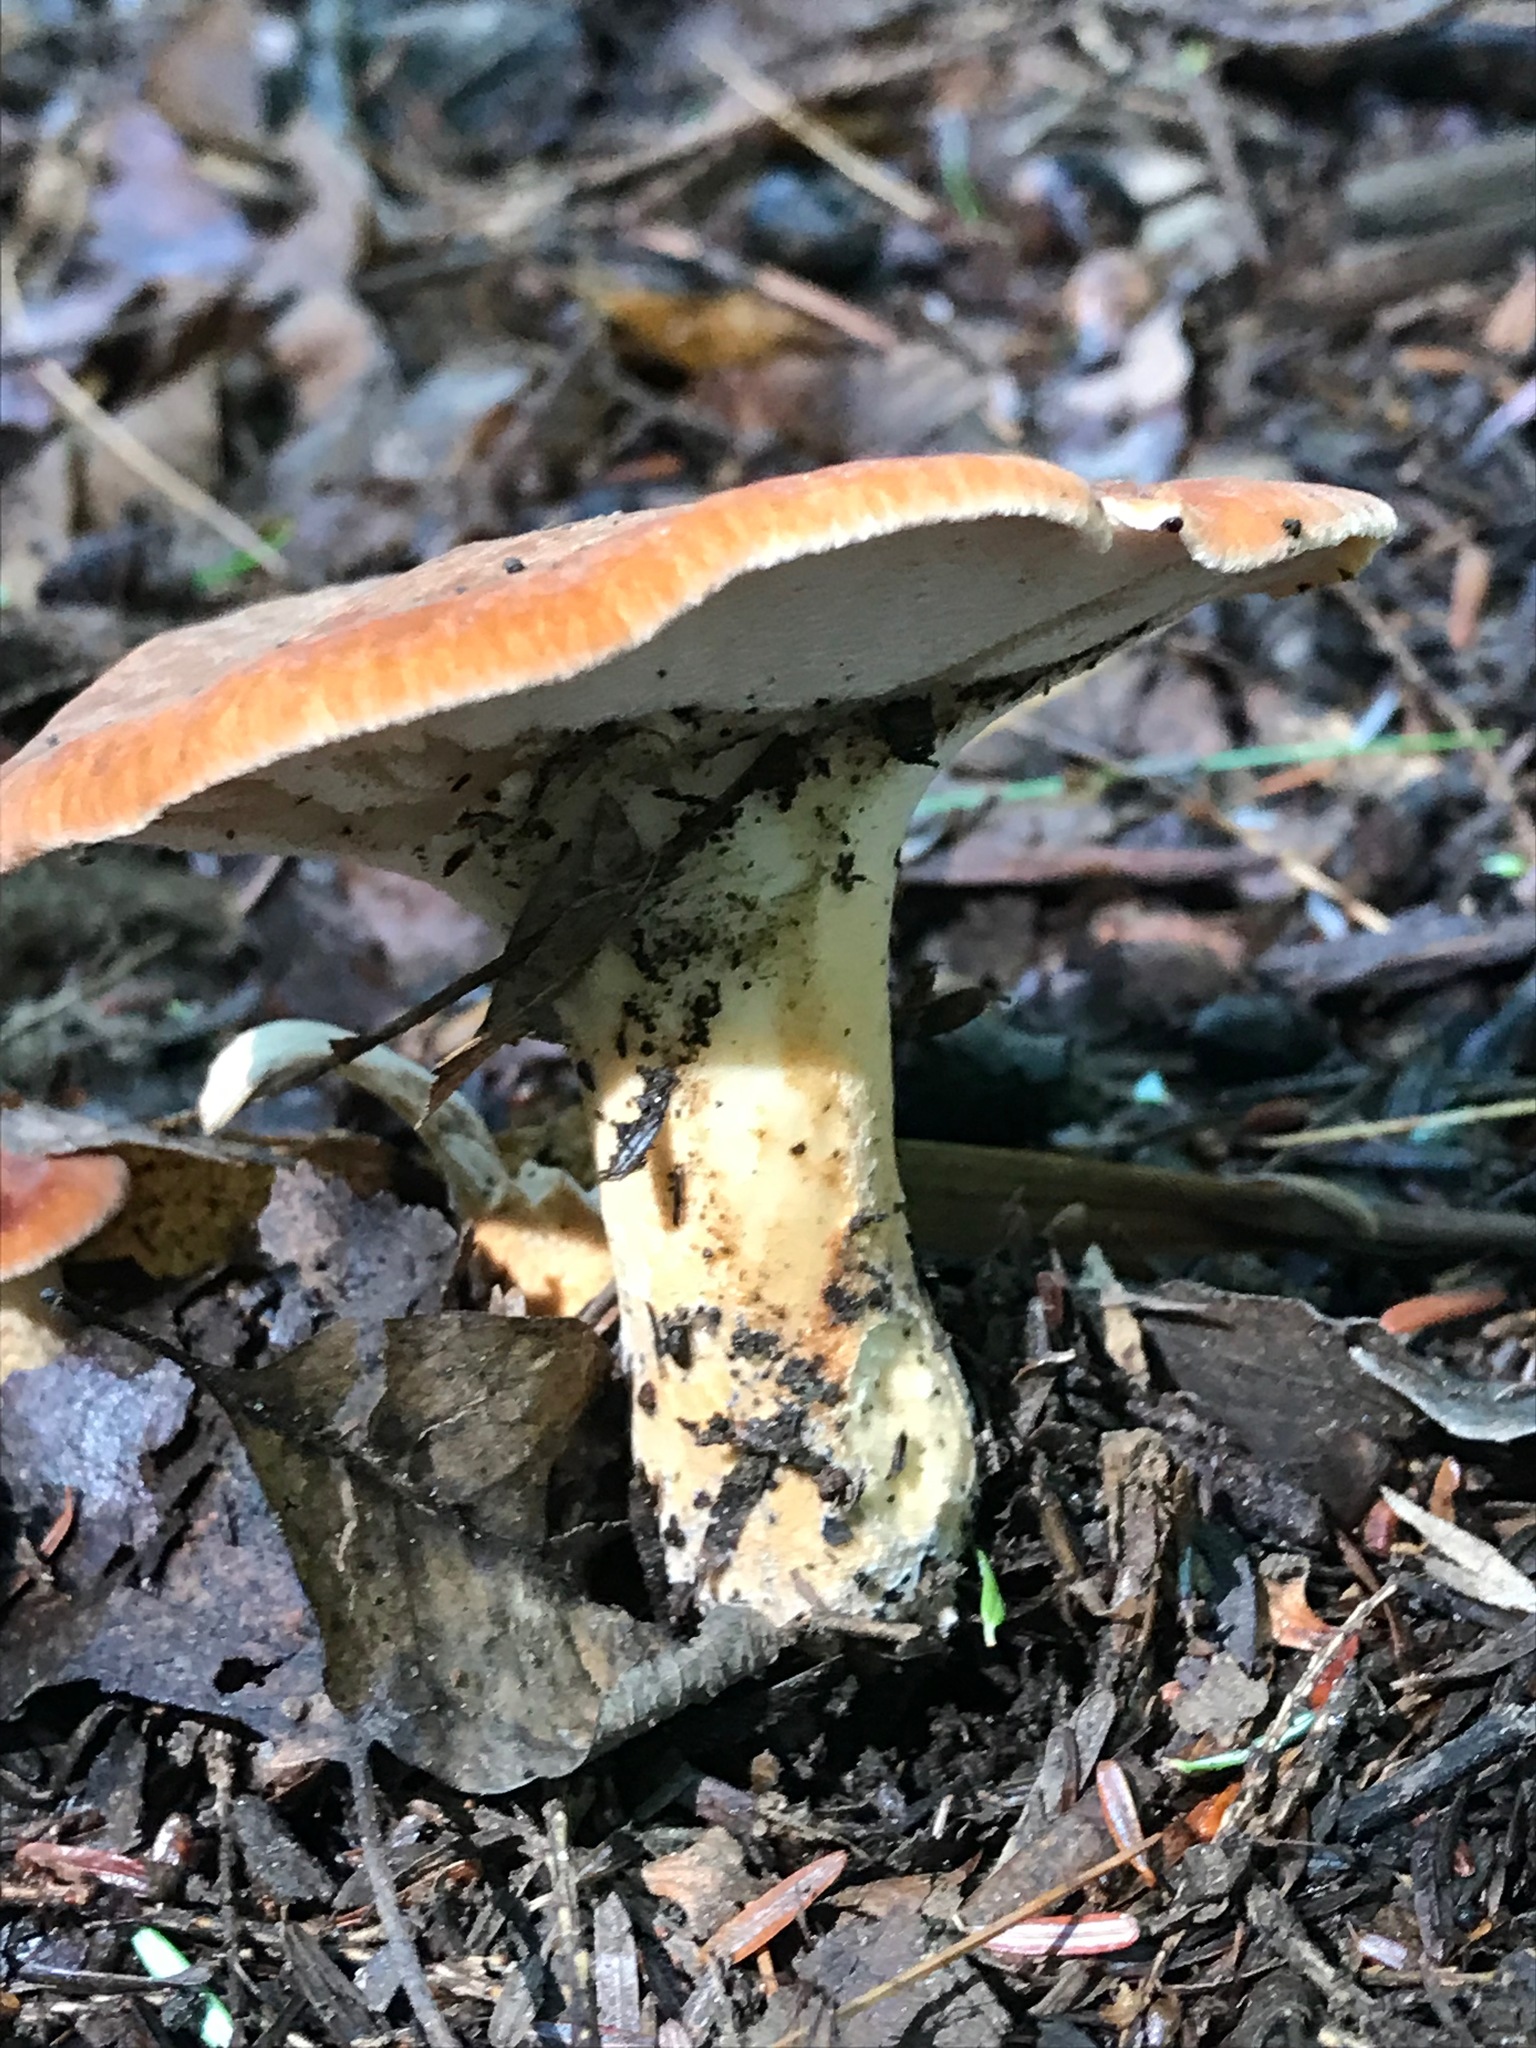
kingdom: Fungi
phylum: Basidiomycota
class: Agaricomycetes
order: Polyporales
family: Polyporaceae
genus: Polyporus
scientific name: Polyporus radicatus
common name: Rooting polypore
